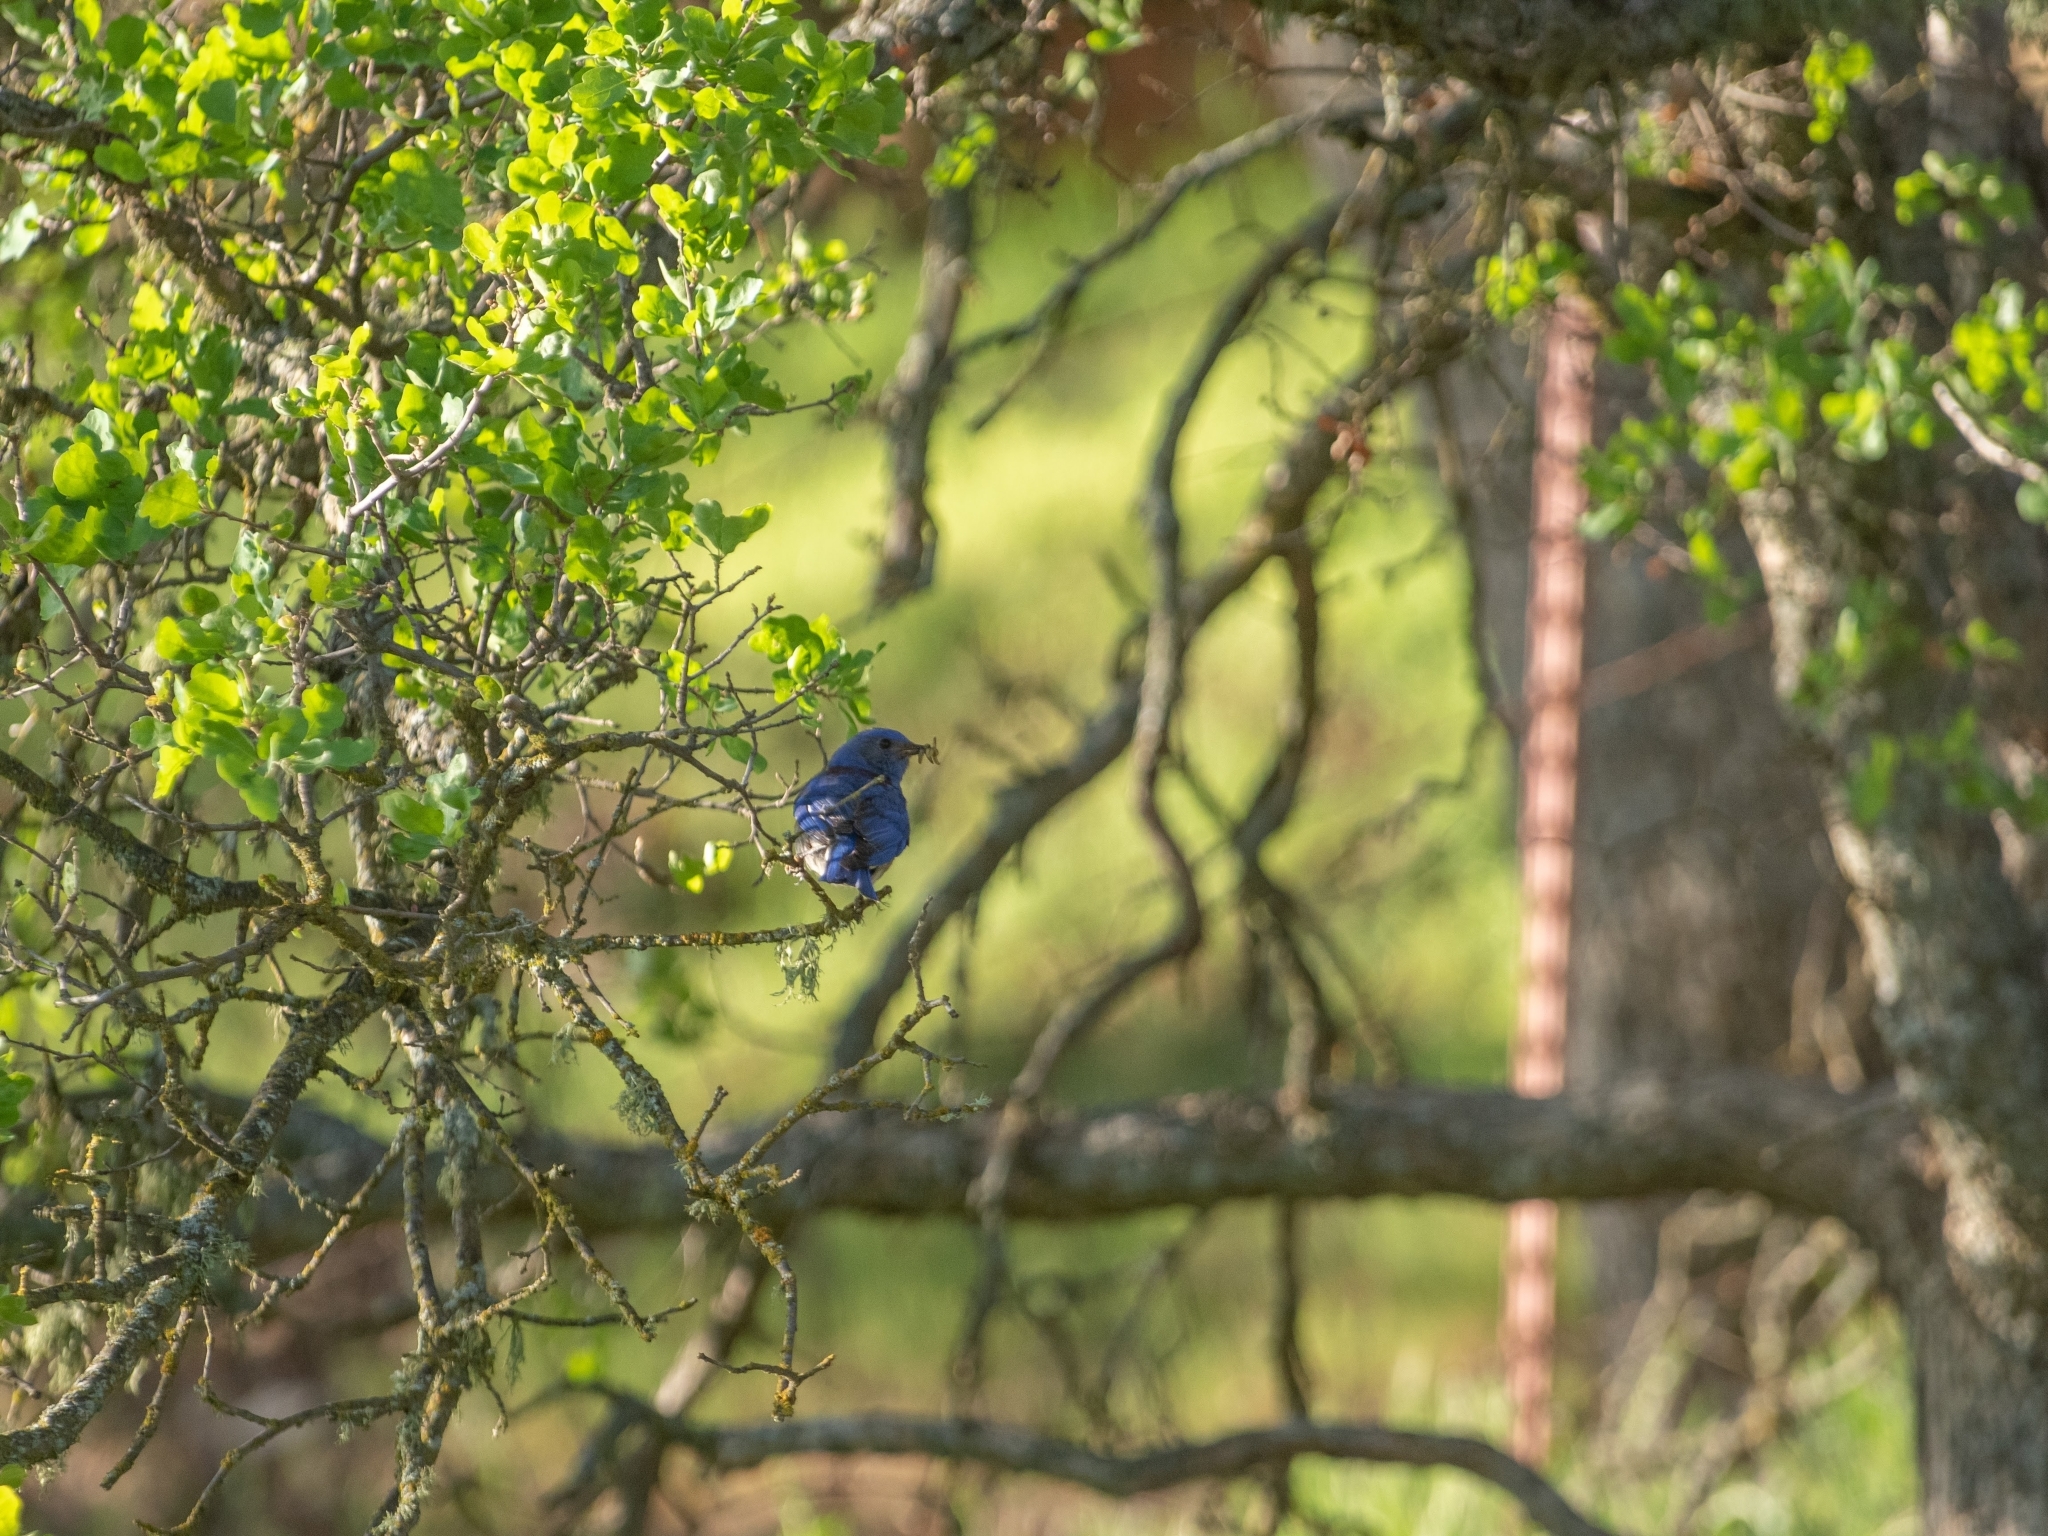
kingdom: Animalia
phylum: Chordata
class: Aves
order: Passeriformes
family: Turdidae
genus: Sialia
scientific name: Sialia mexicana
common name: Western bluebird
